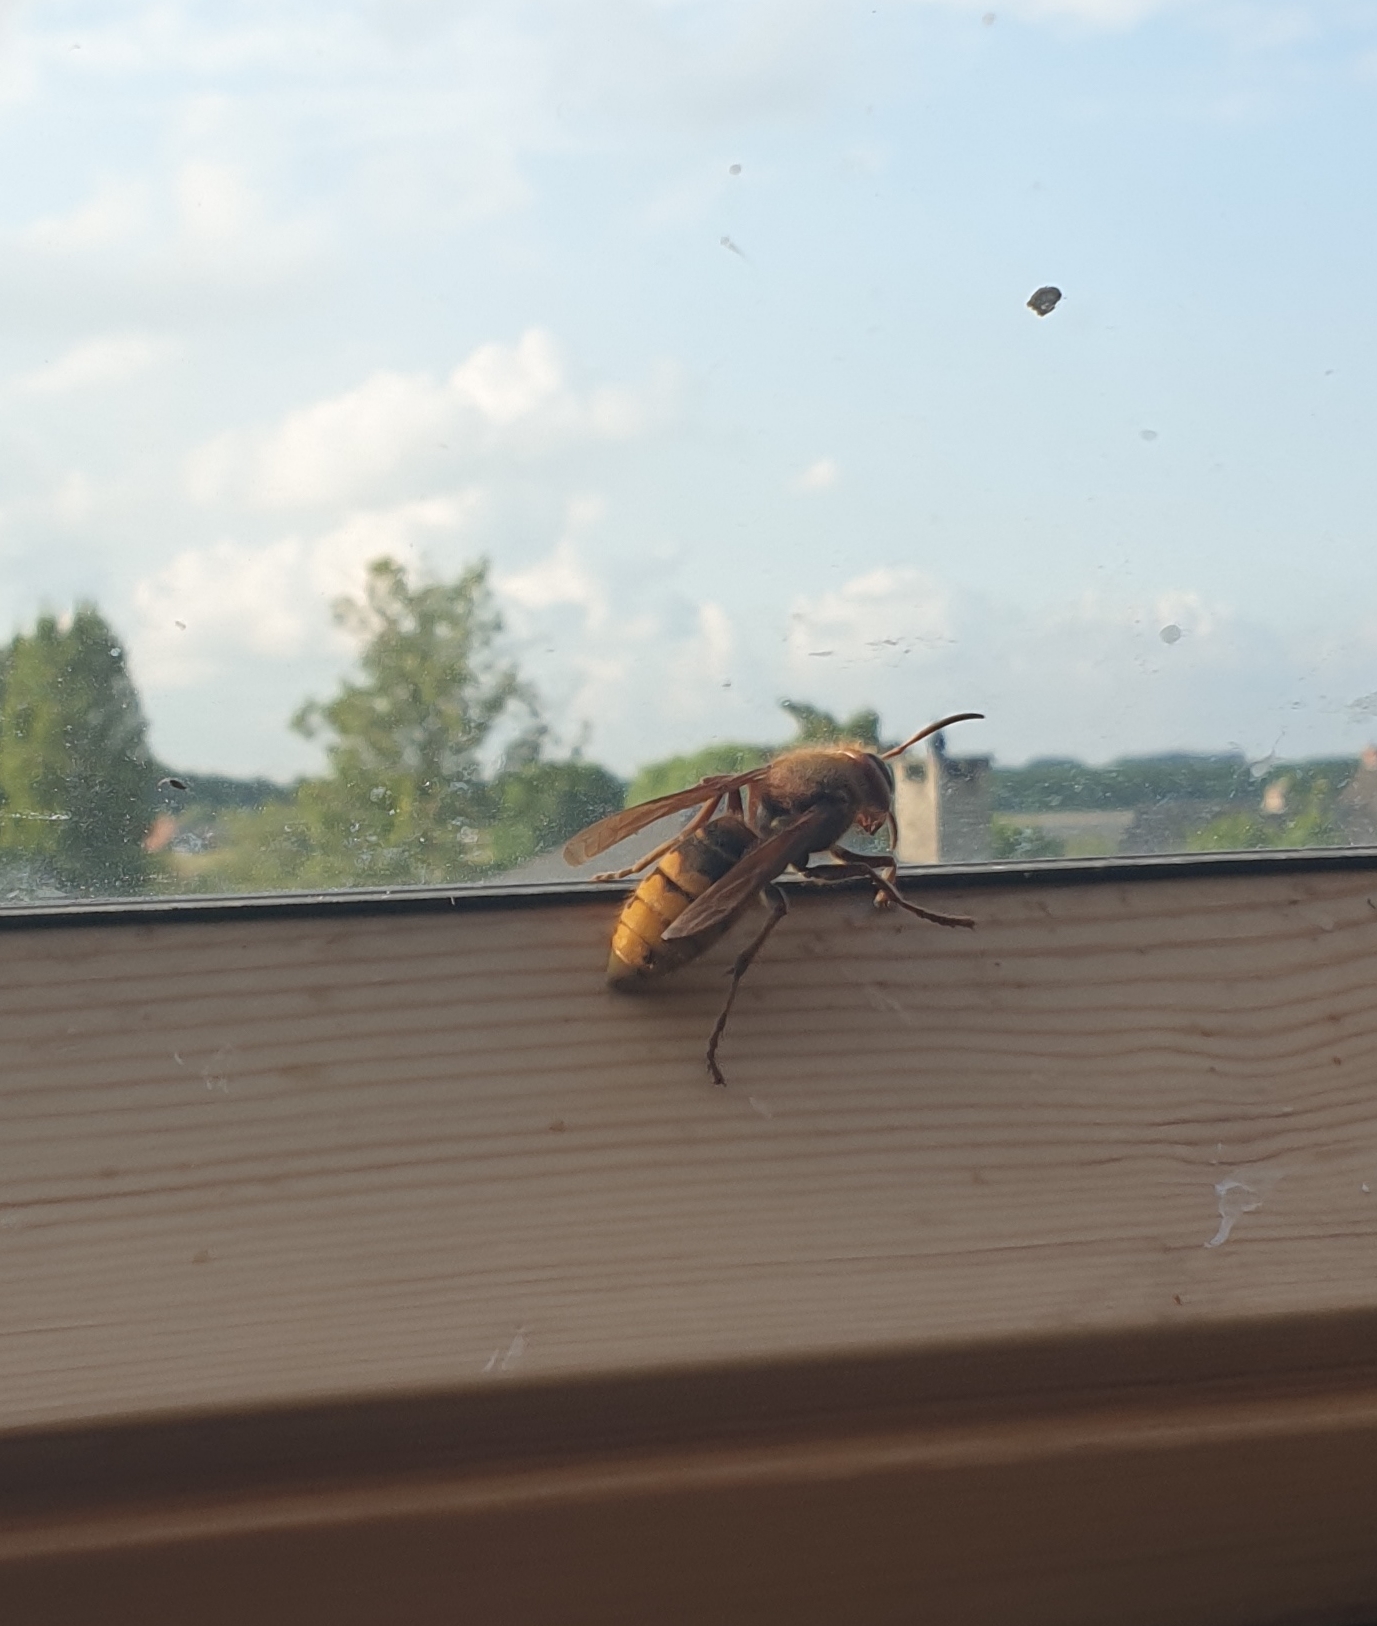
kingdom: Animalia
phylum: Arthropoda
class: Insecta
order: Hymenoptera
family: Vespidae
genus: Vespa
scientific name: Vespa crabro
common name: Hornet
